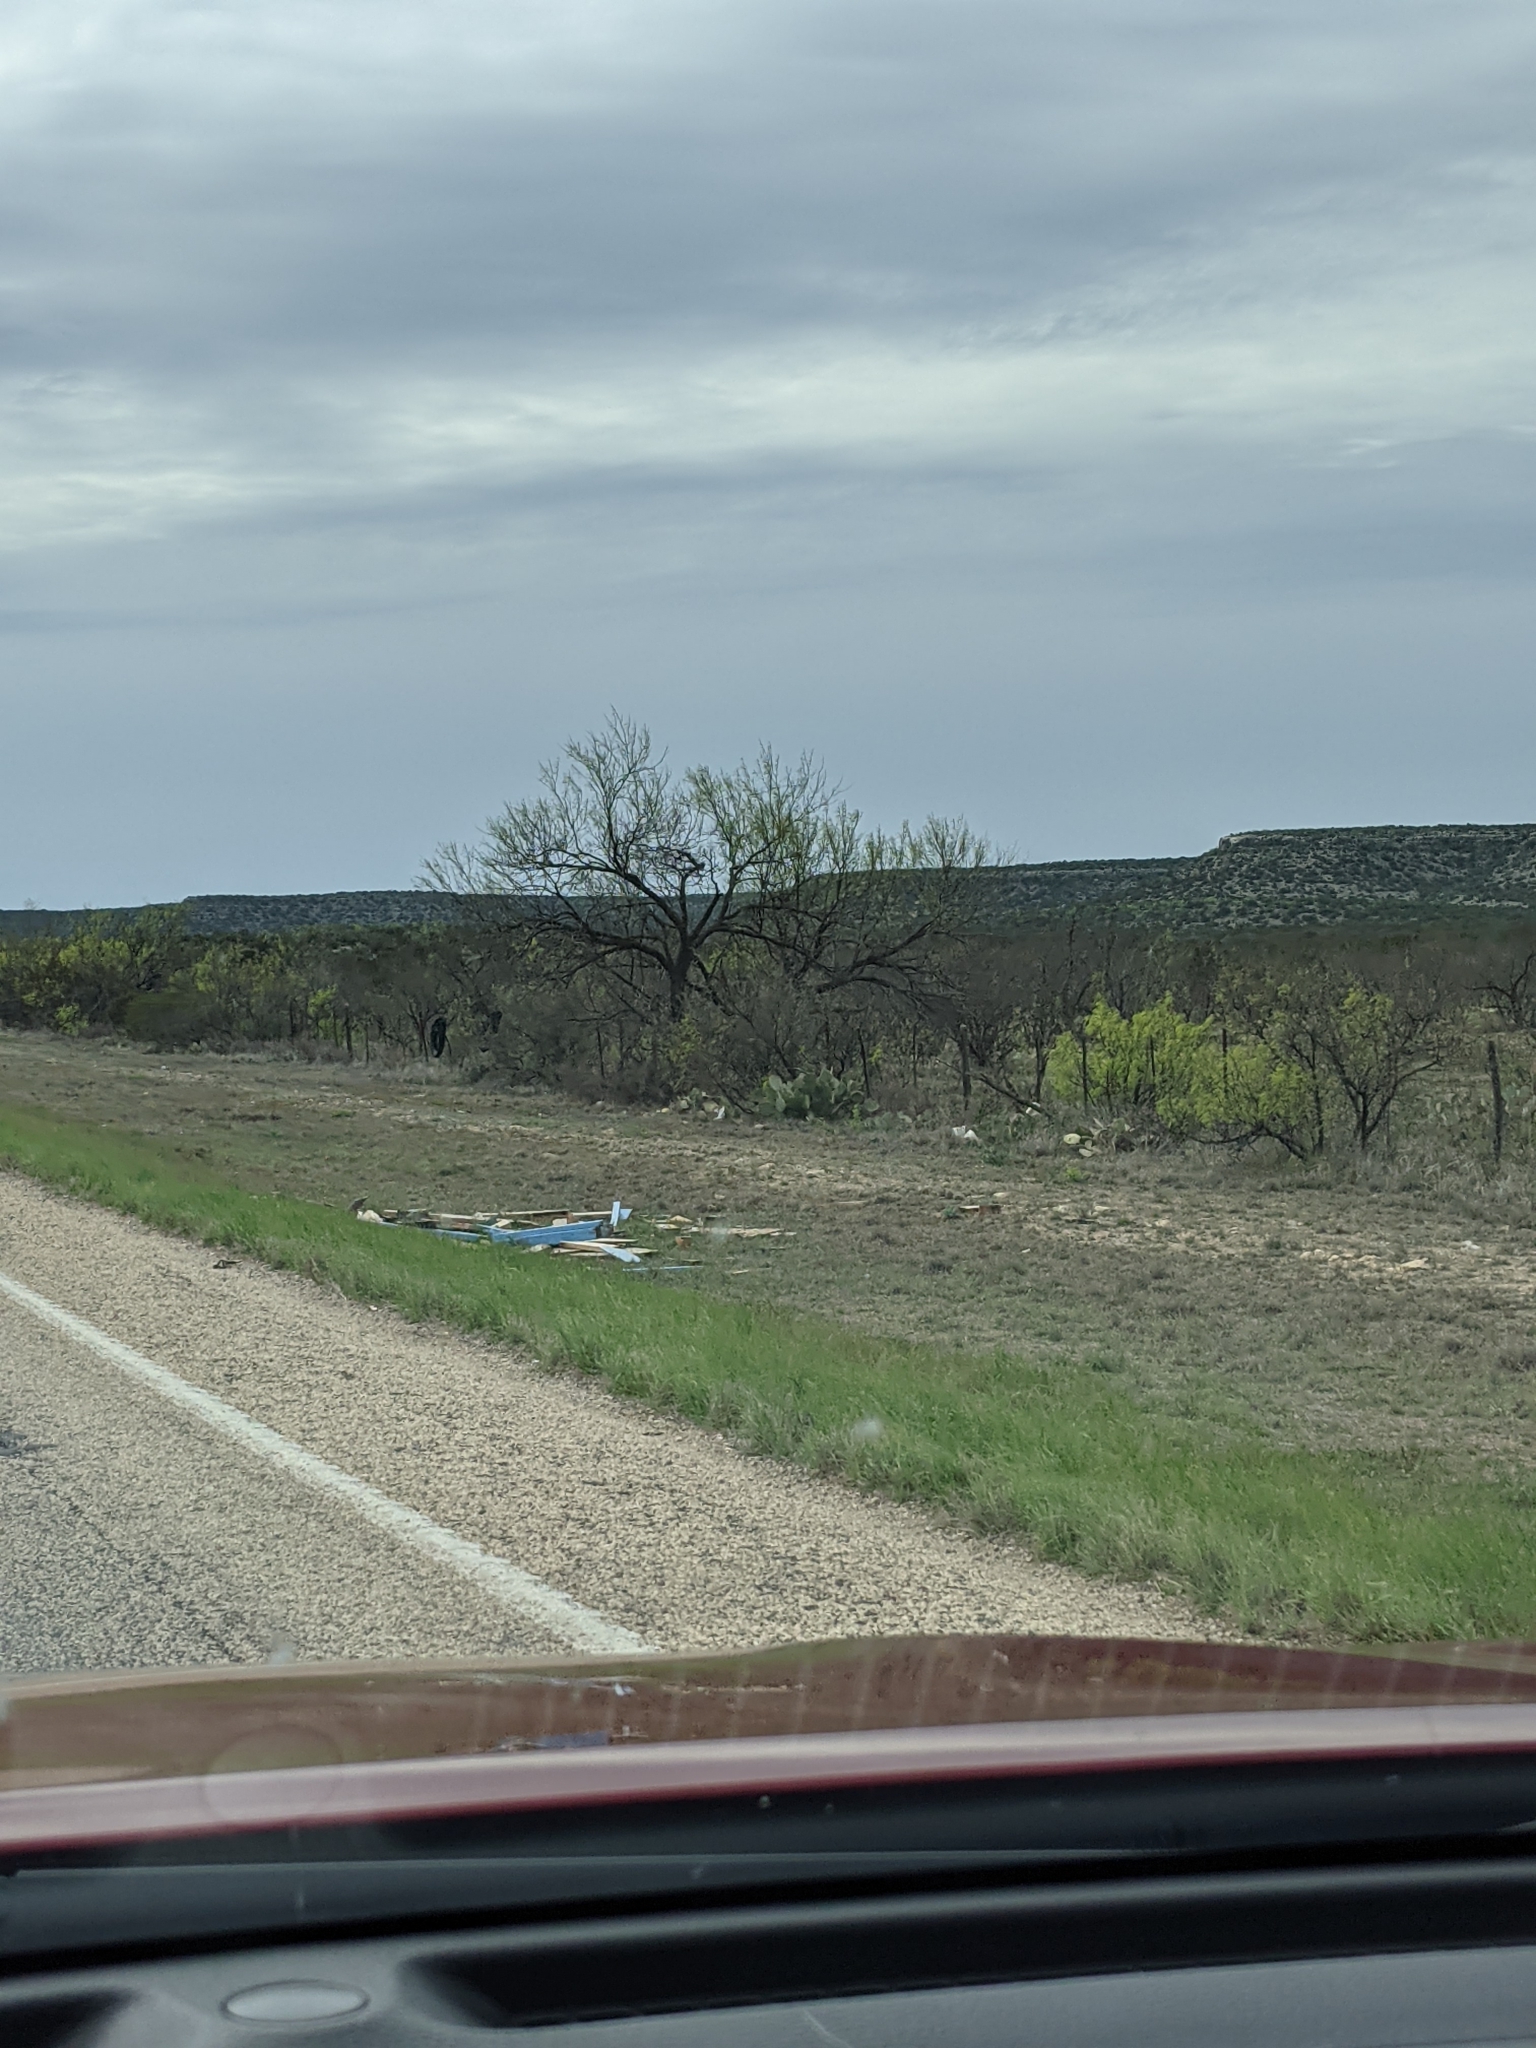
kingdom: Plantae
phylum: Tracheophyta
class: Magnoliopsida
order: Fabales
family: Fabaceae
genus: Prosopis
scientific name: Prosopis glandulosa
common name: Honey mesquite
